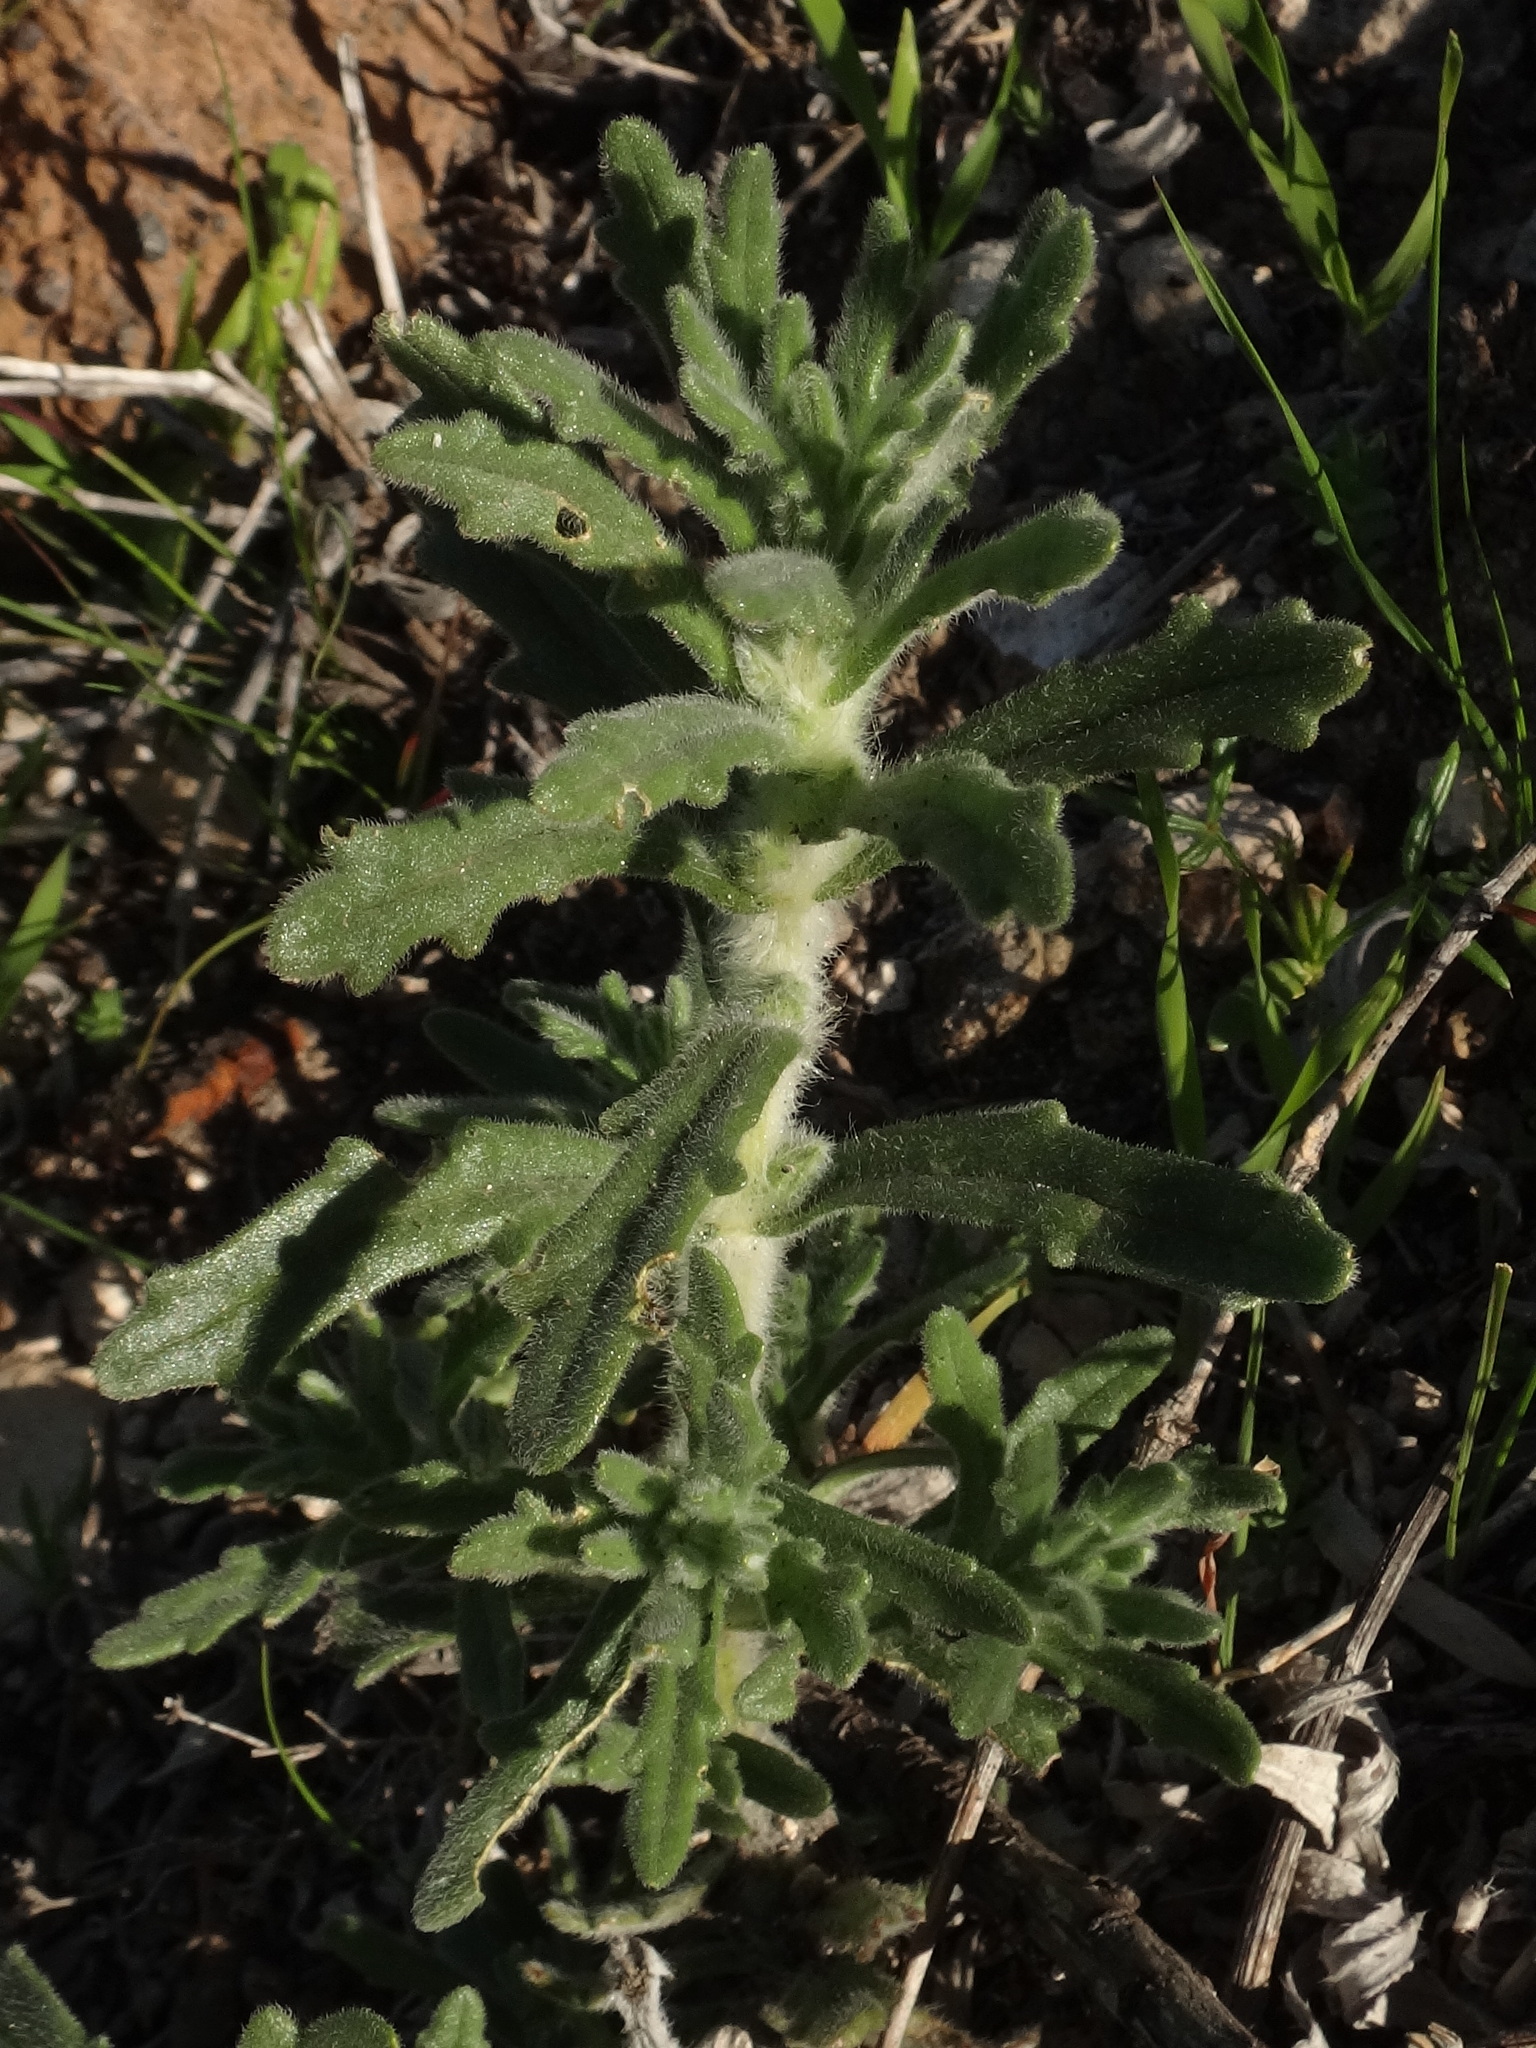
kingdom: Plantae
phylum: Tracheophyta
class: Magnoliopsida
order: Lamiales
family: Lamiaceae
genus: Ajuga
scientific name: Ajuga iva
